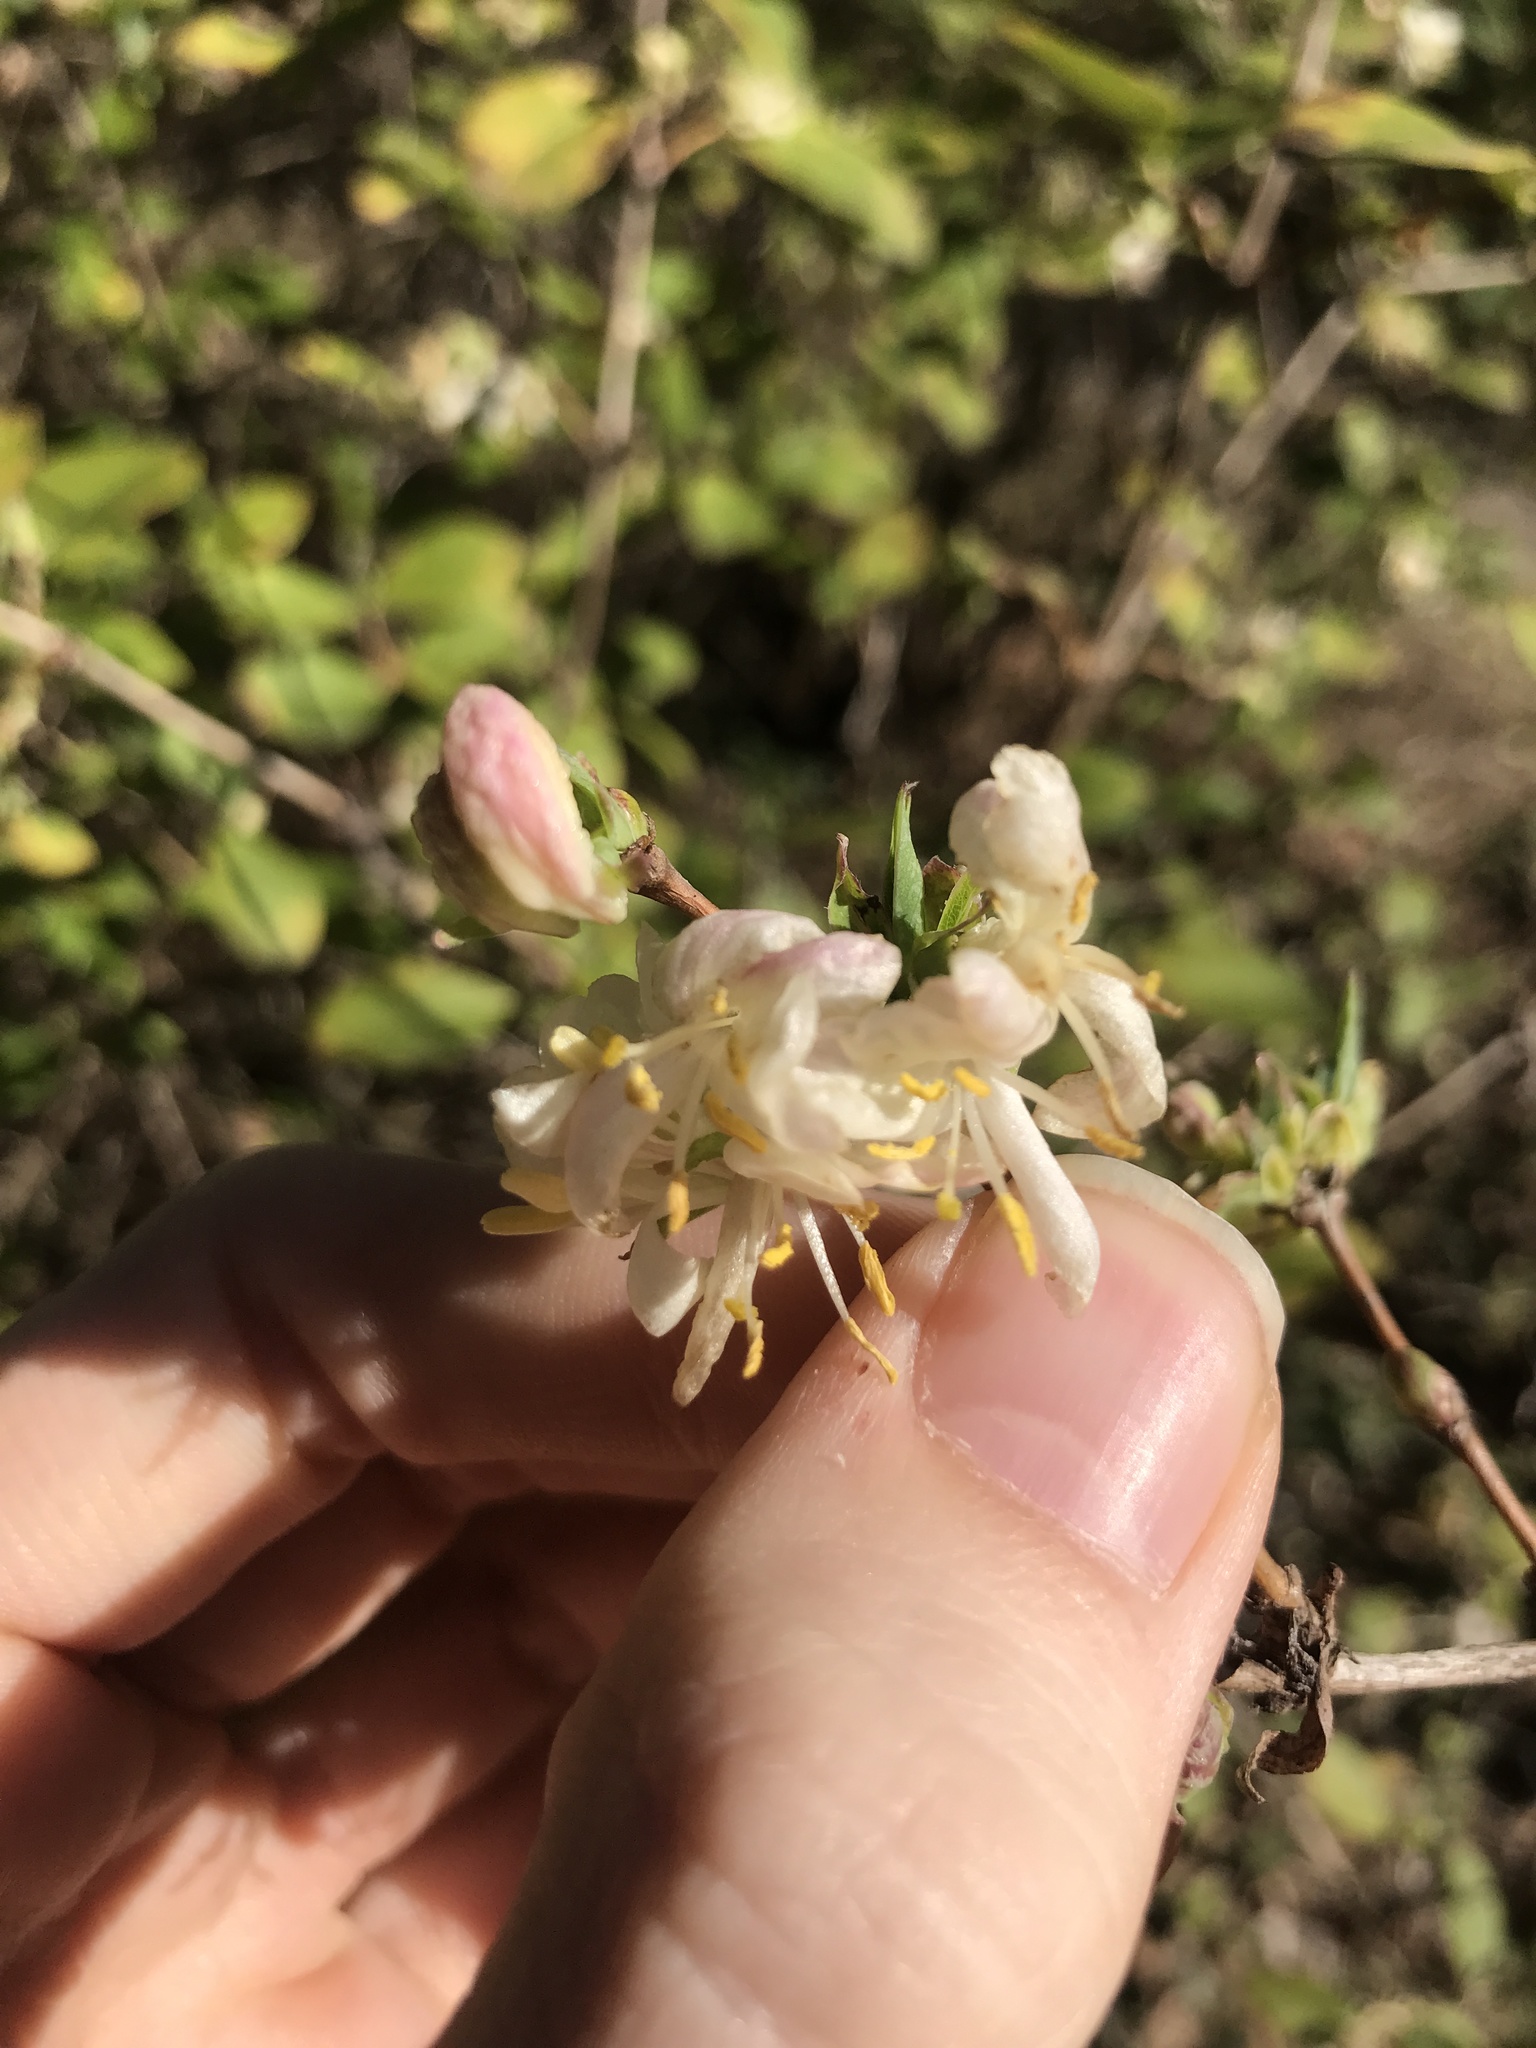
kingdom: Plantae
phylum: Tracheophyta
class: Magnoliopsida
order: Dipsacales
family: Caprifoliaceae
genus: Lonicera
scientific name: Lonicera fragrantissima
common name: Fragrant honeysuckle
